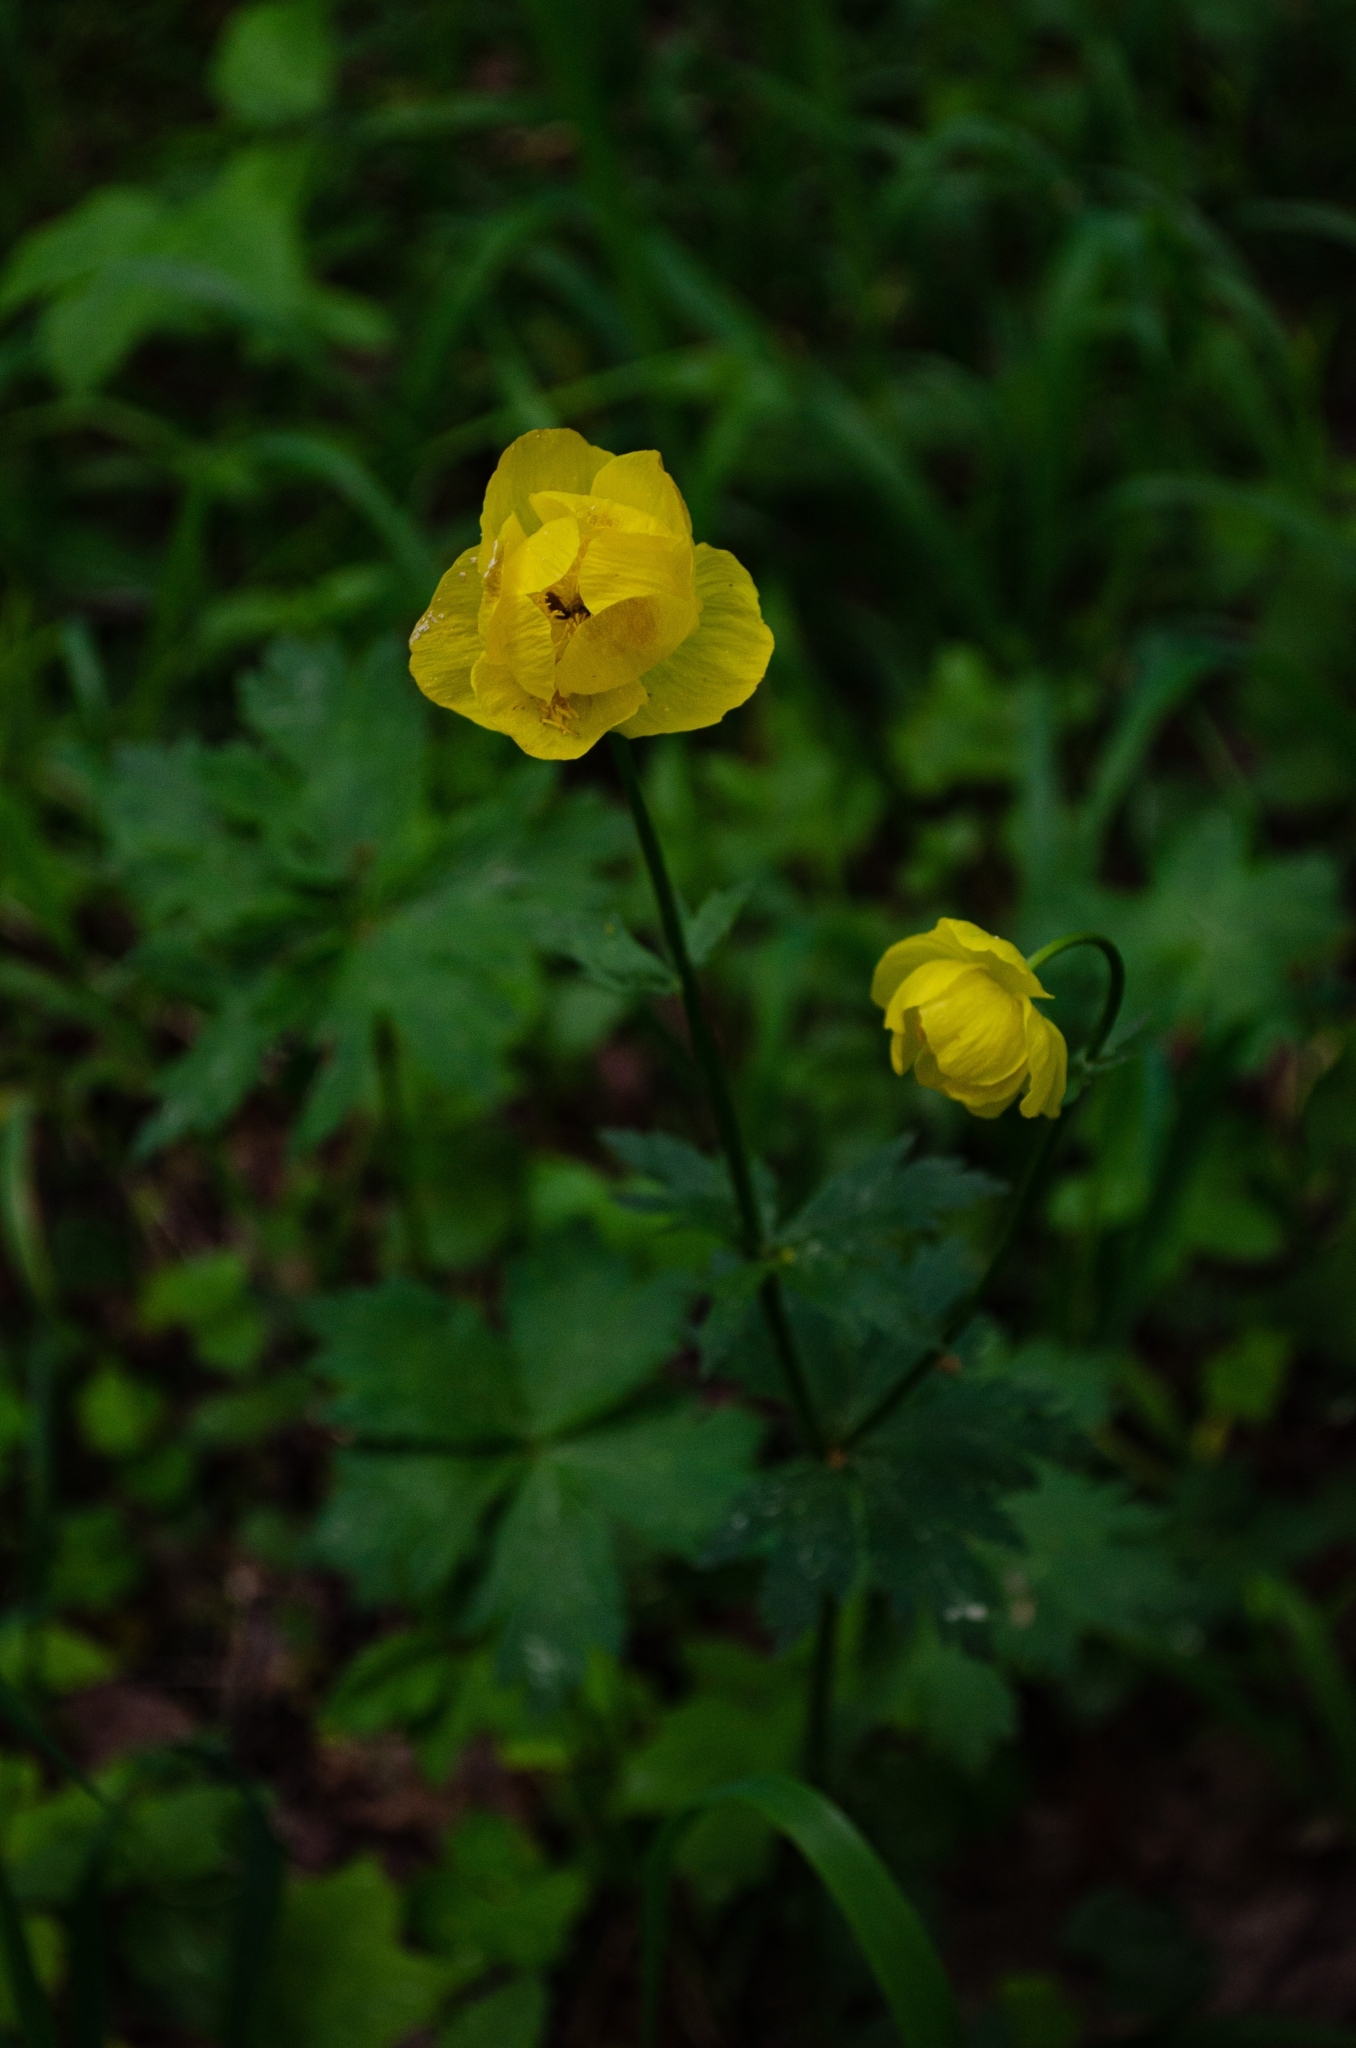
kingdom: Plantae
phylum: Tracheophyta
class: Magnoliopsida
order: Ranunculales
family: Ranunculaceae
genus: Trollius
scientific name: Trollius europaeus
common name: European globeflower
